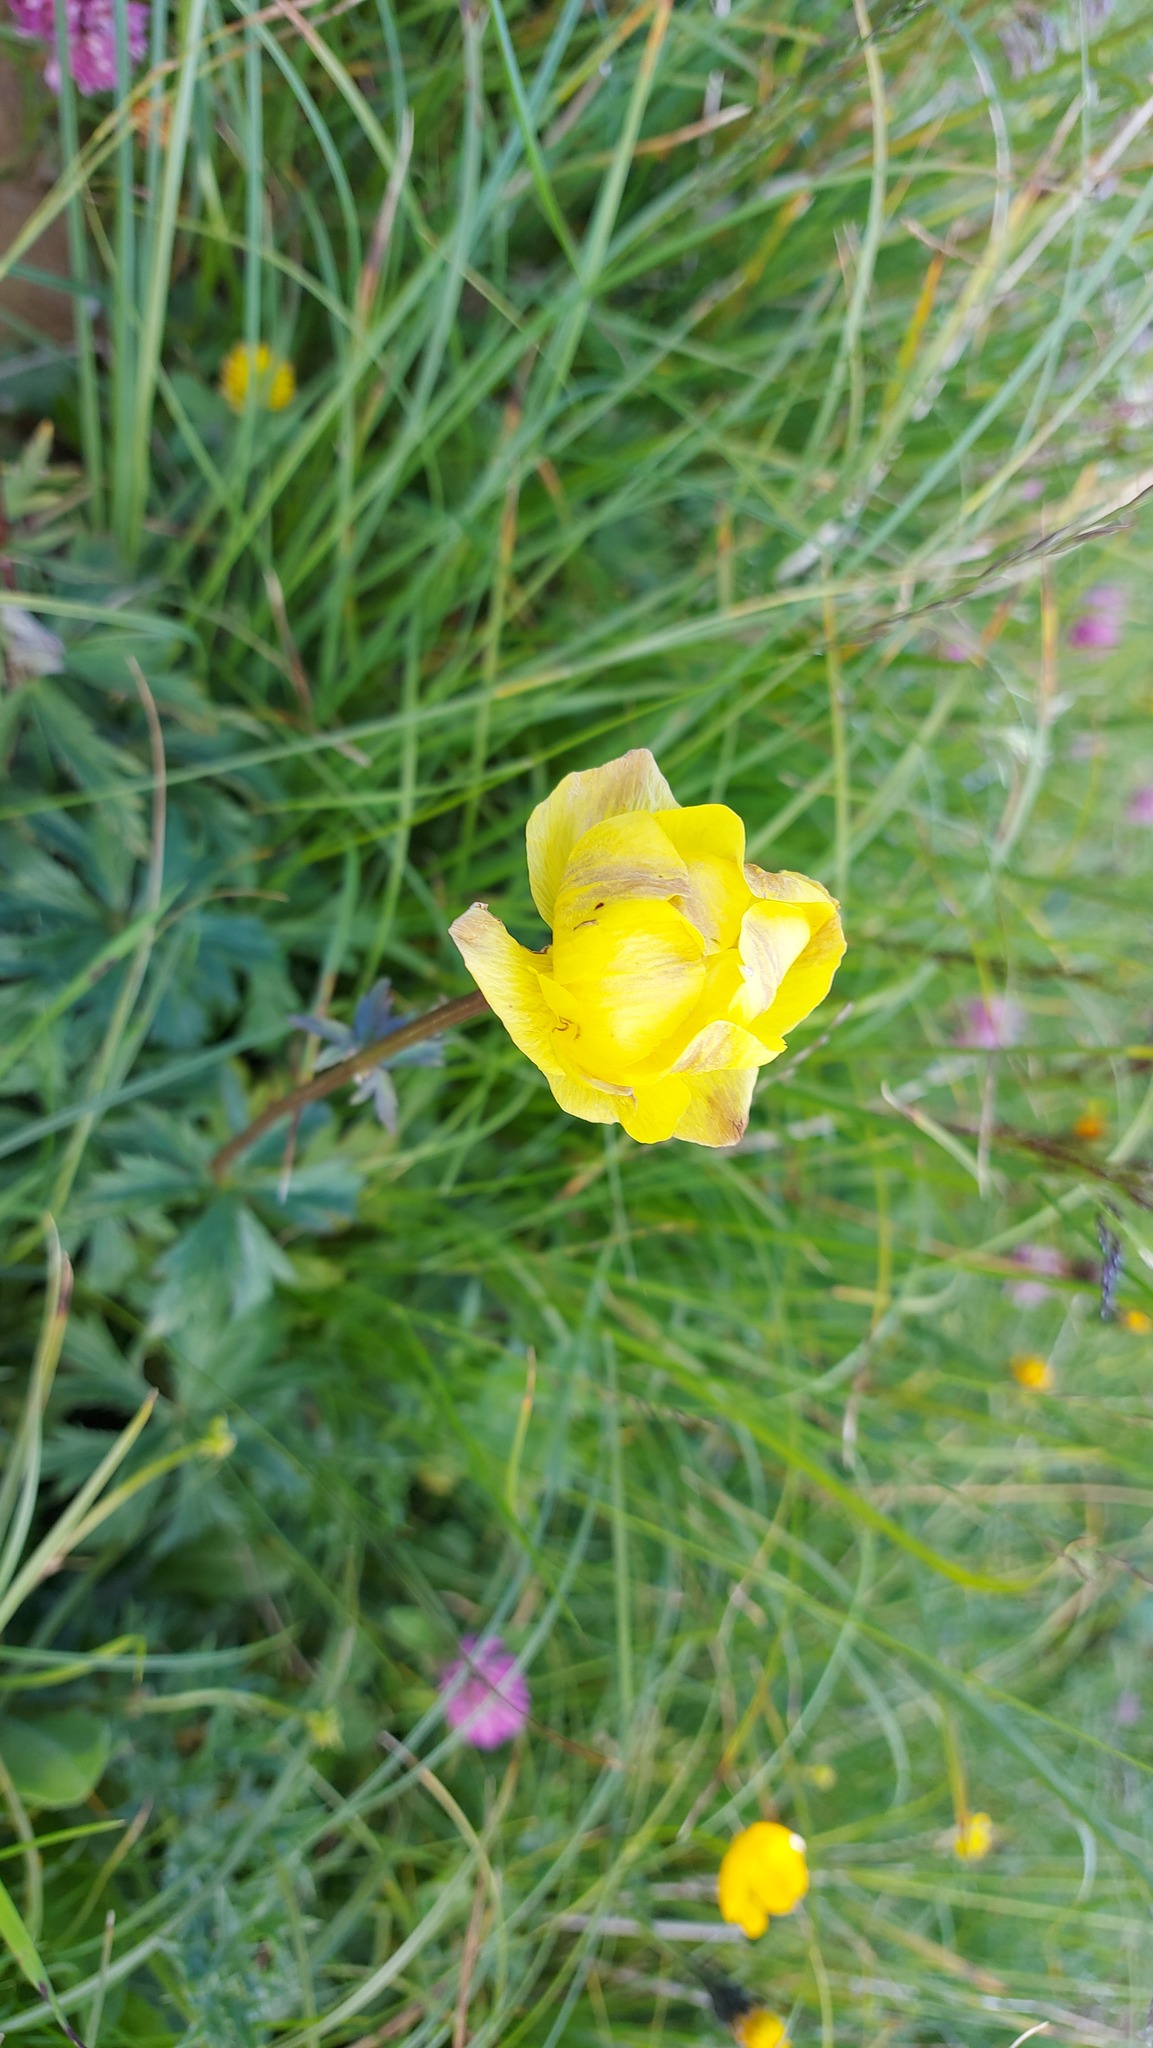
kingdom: Plantae
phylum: Tracheophyta
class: Magnoliopsida
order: Ranunculales
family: Ranunculaceae
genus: Trollius
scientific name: Trollius europaeus
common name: European globeflower
